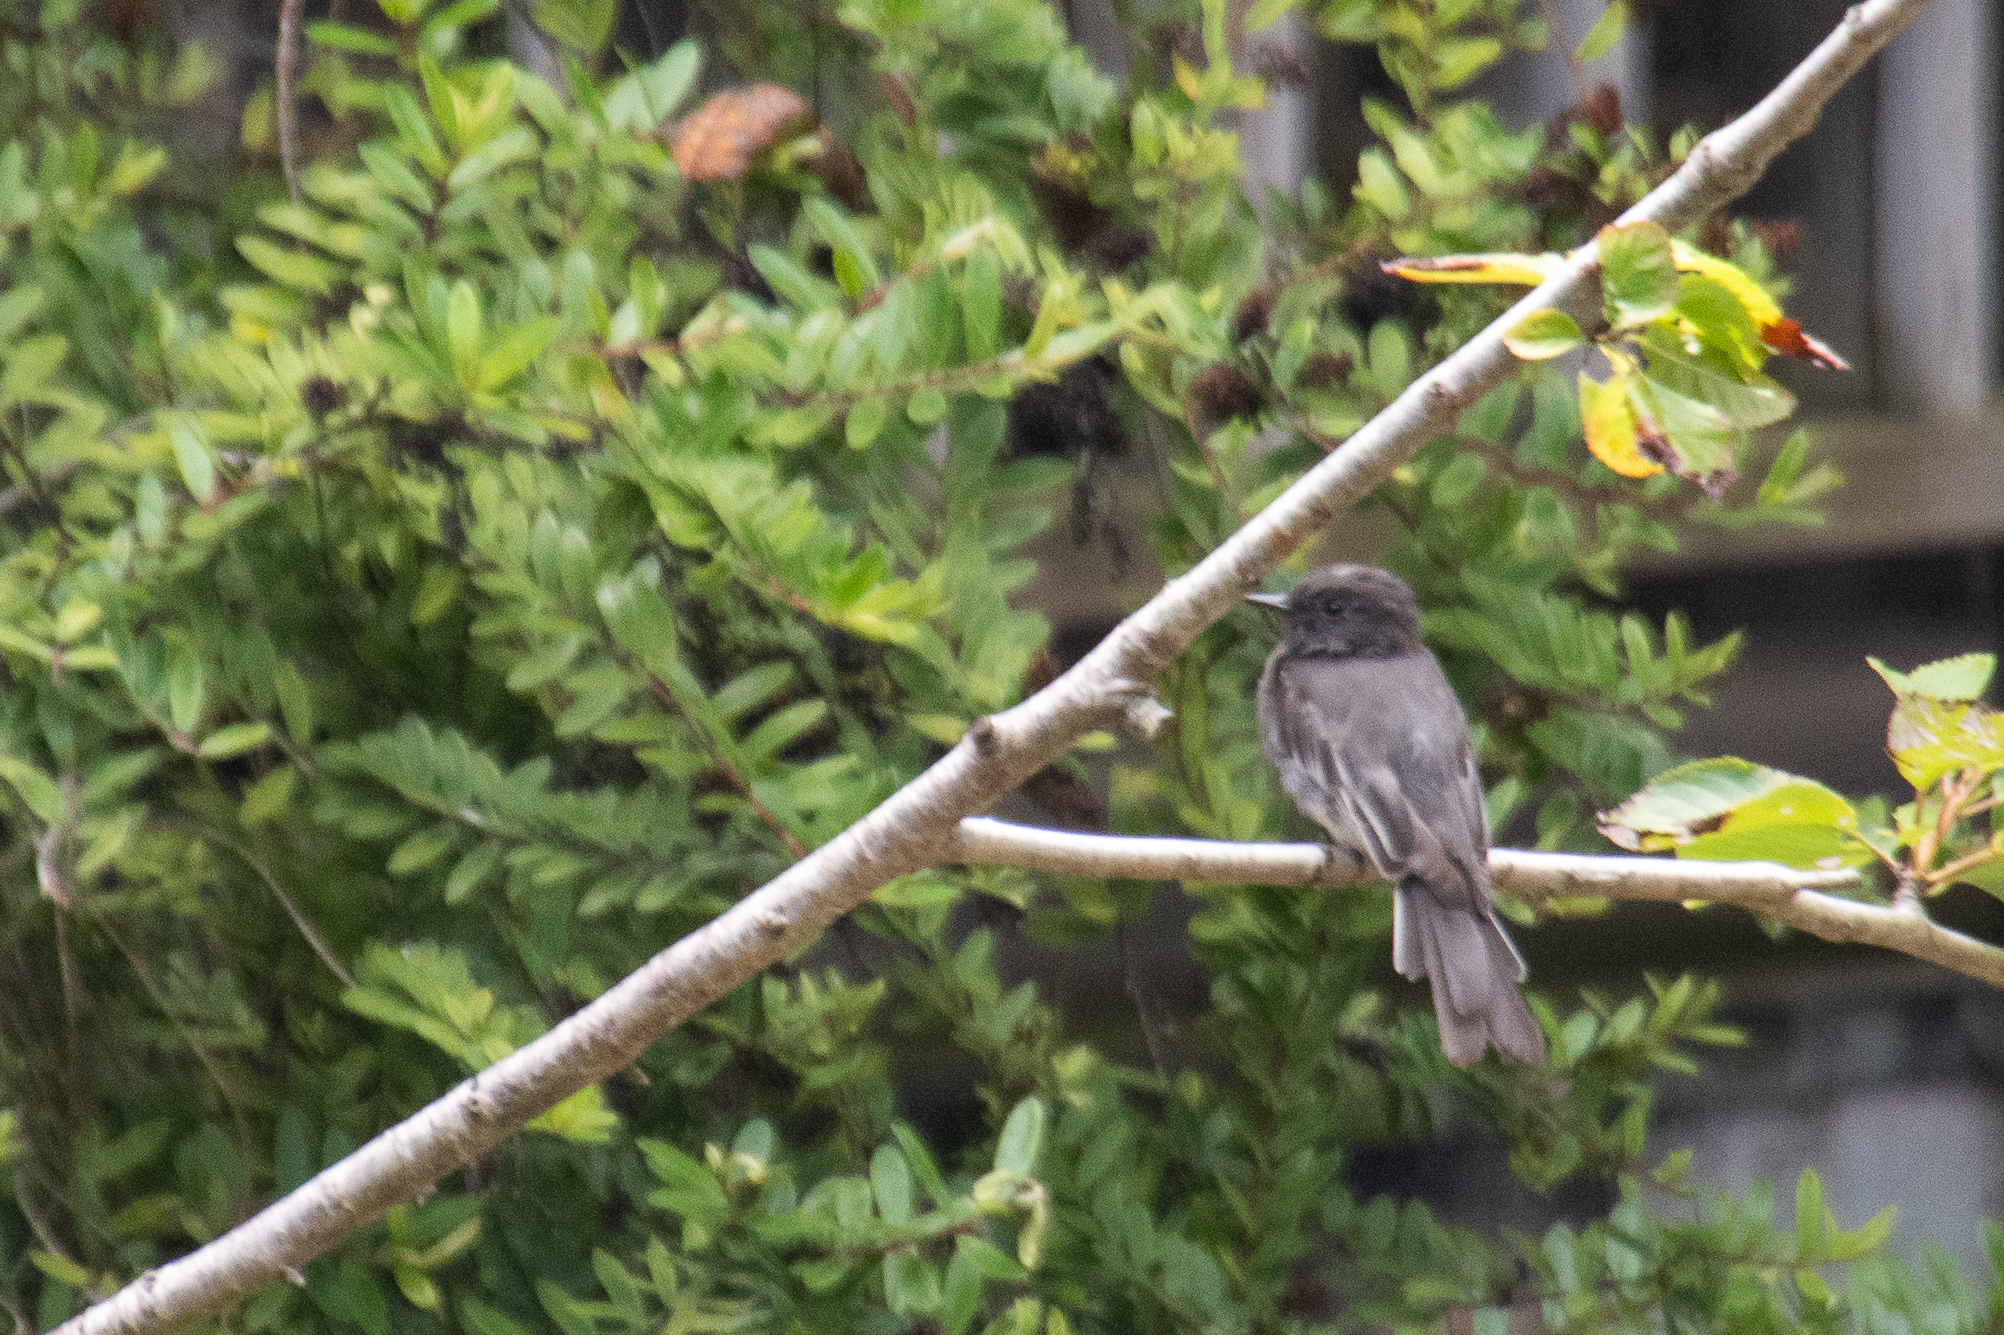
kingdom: Animalia
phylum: Chordata
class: Aves
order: Passeriformes
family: Tyrannidae
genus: Sayornis
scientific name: Sayornis nigricans
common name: Black phoebe
